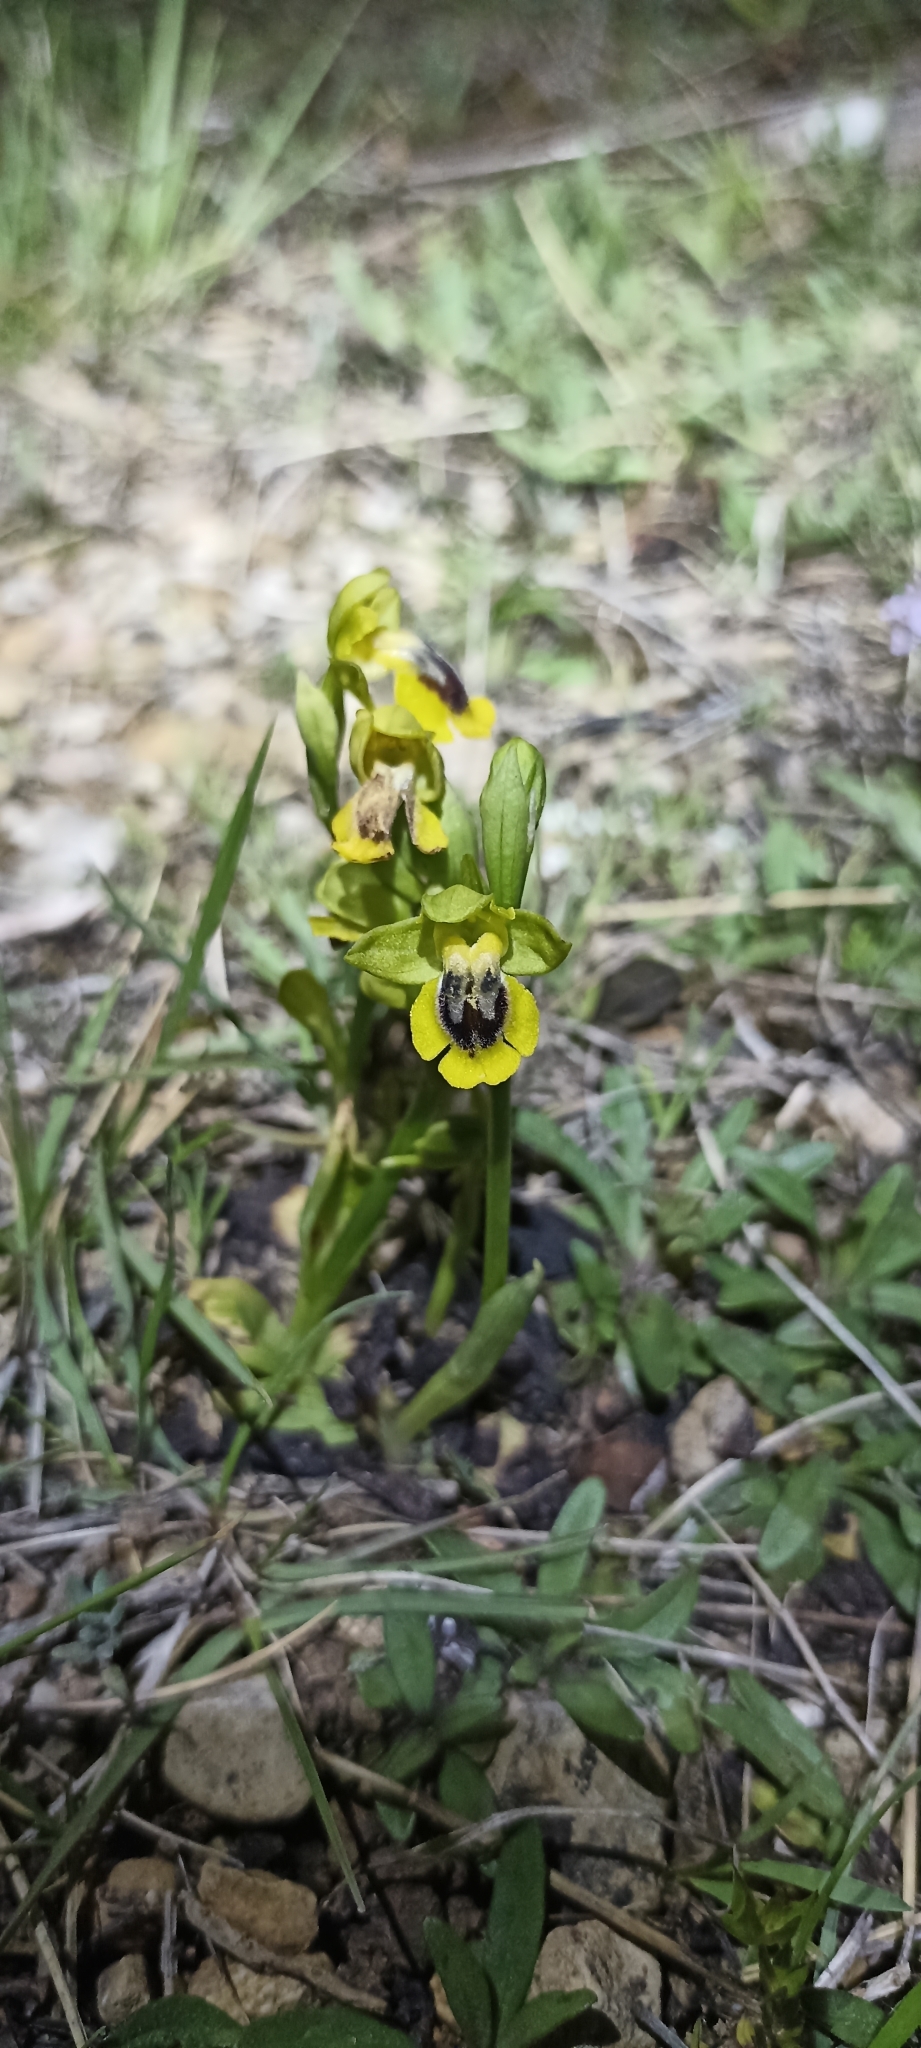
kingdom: Plantae
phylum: Tracheophyta
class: Liliopsida
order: Asparagales
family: Orchidaceae
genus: Ophrys
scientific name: Ophrys lutea
